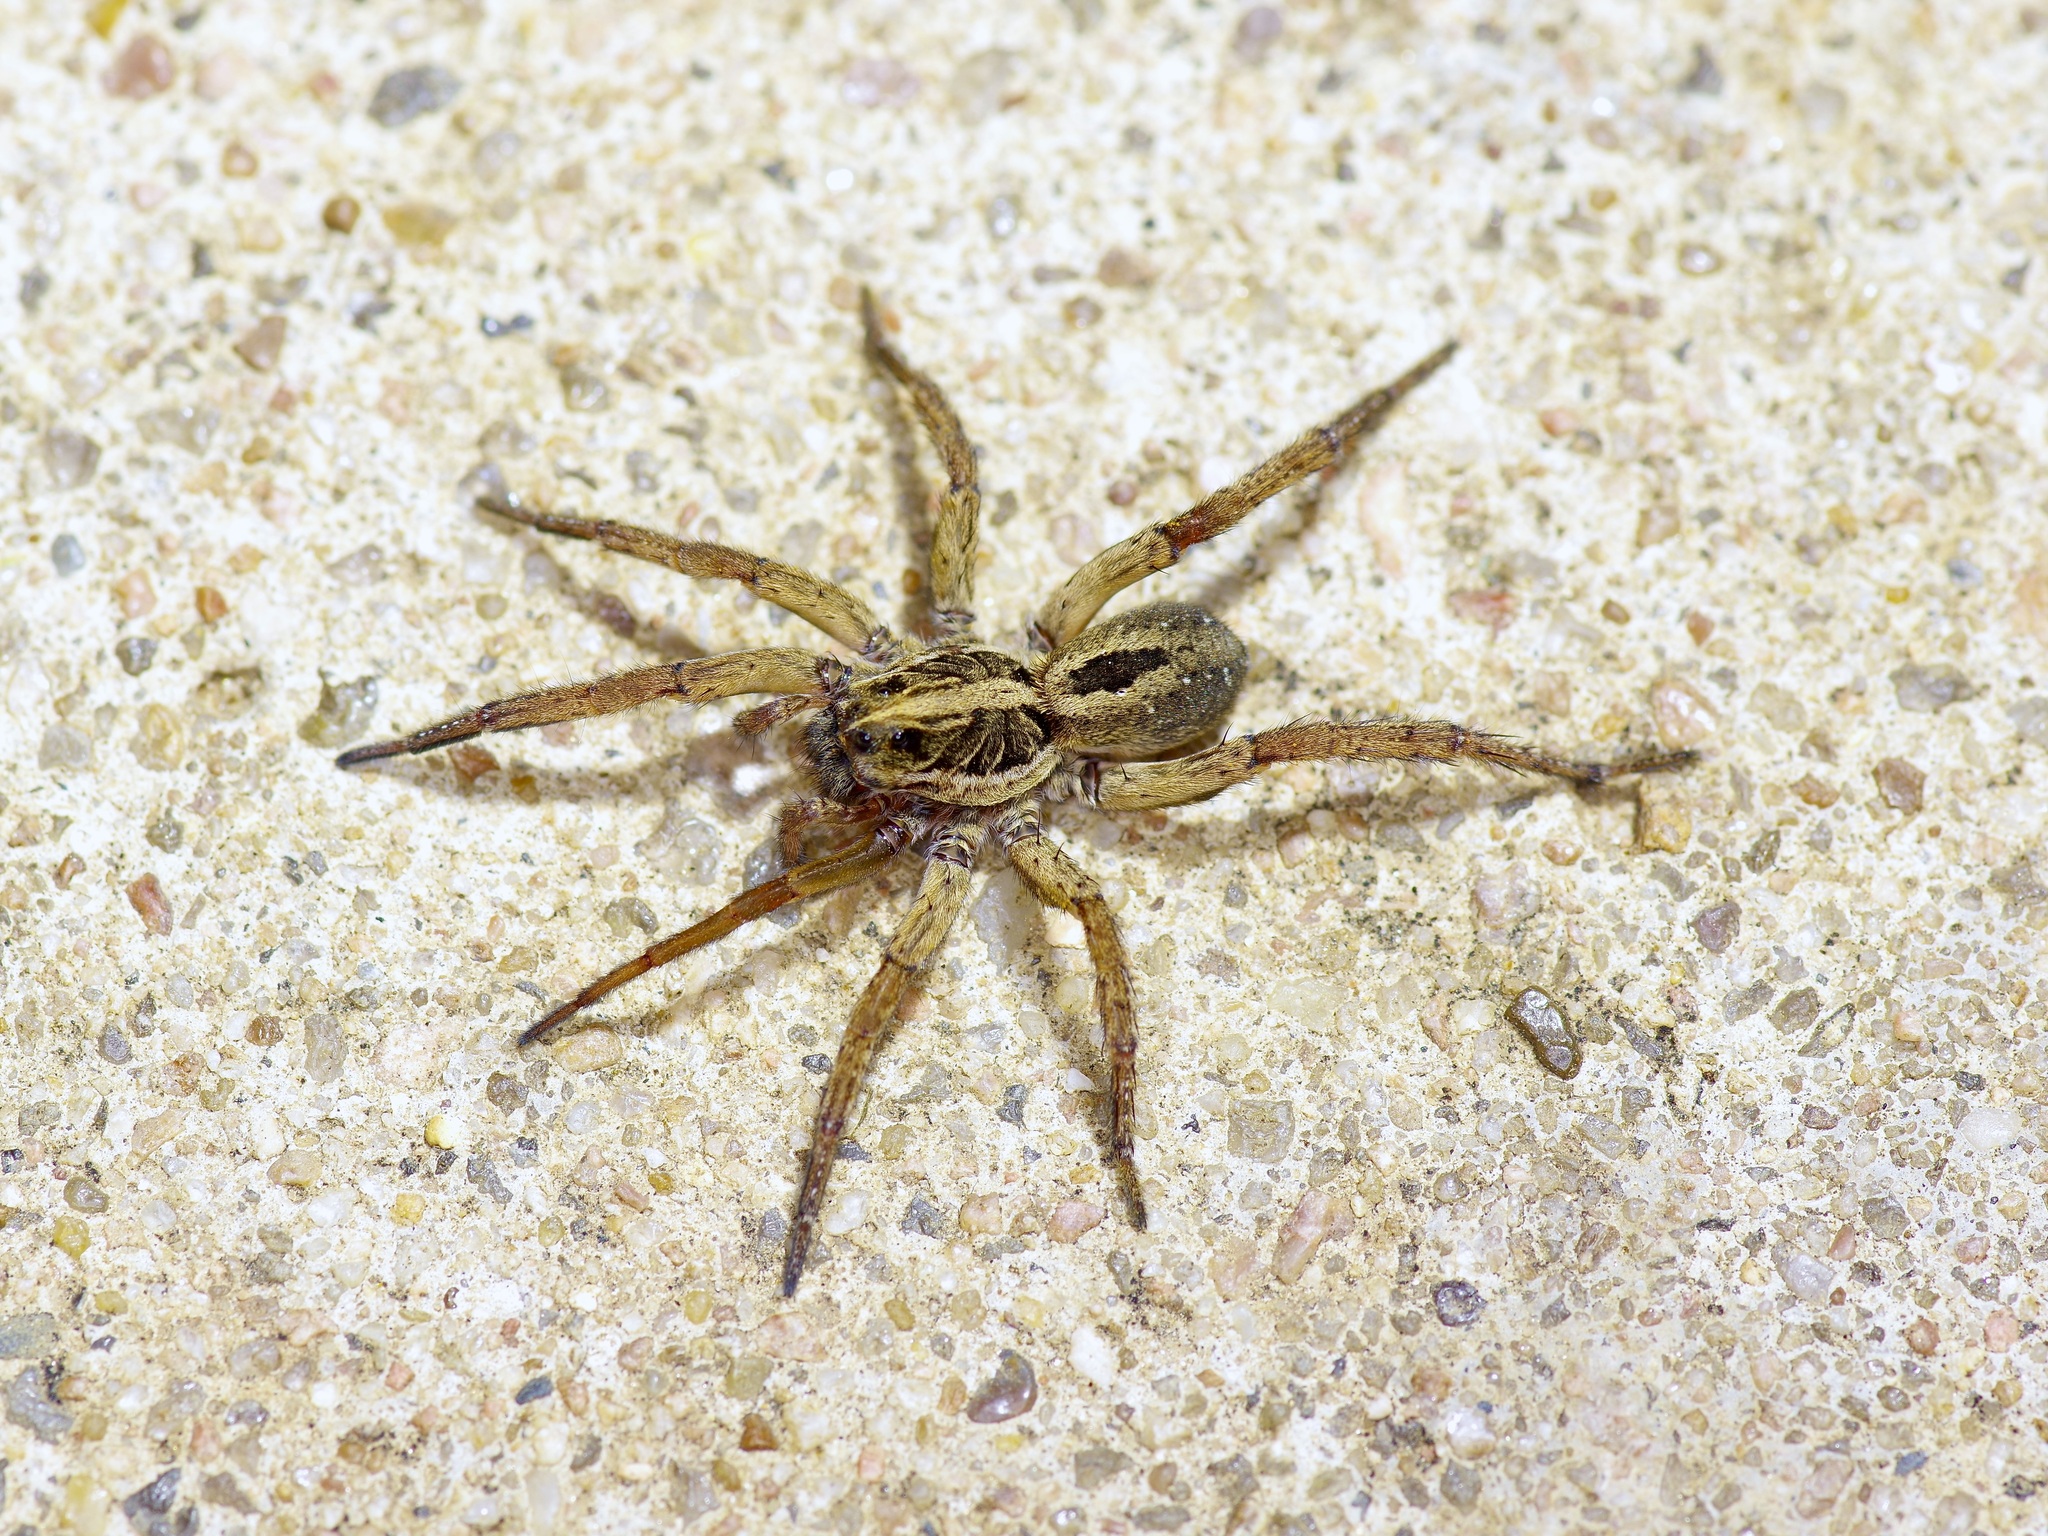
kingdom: Animalia
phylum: Arthropoda
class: Arachnida
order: Araneae
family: Lycosidae
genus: Tigrosa
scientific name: Tigrosa annexa
